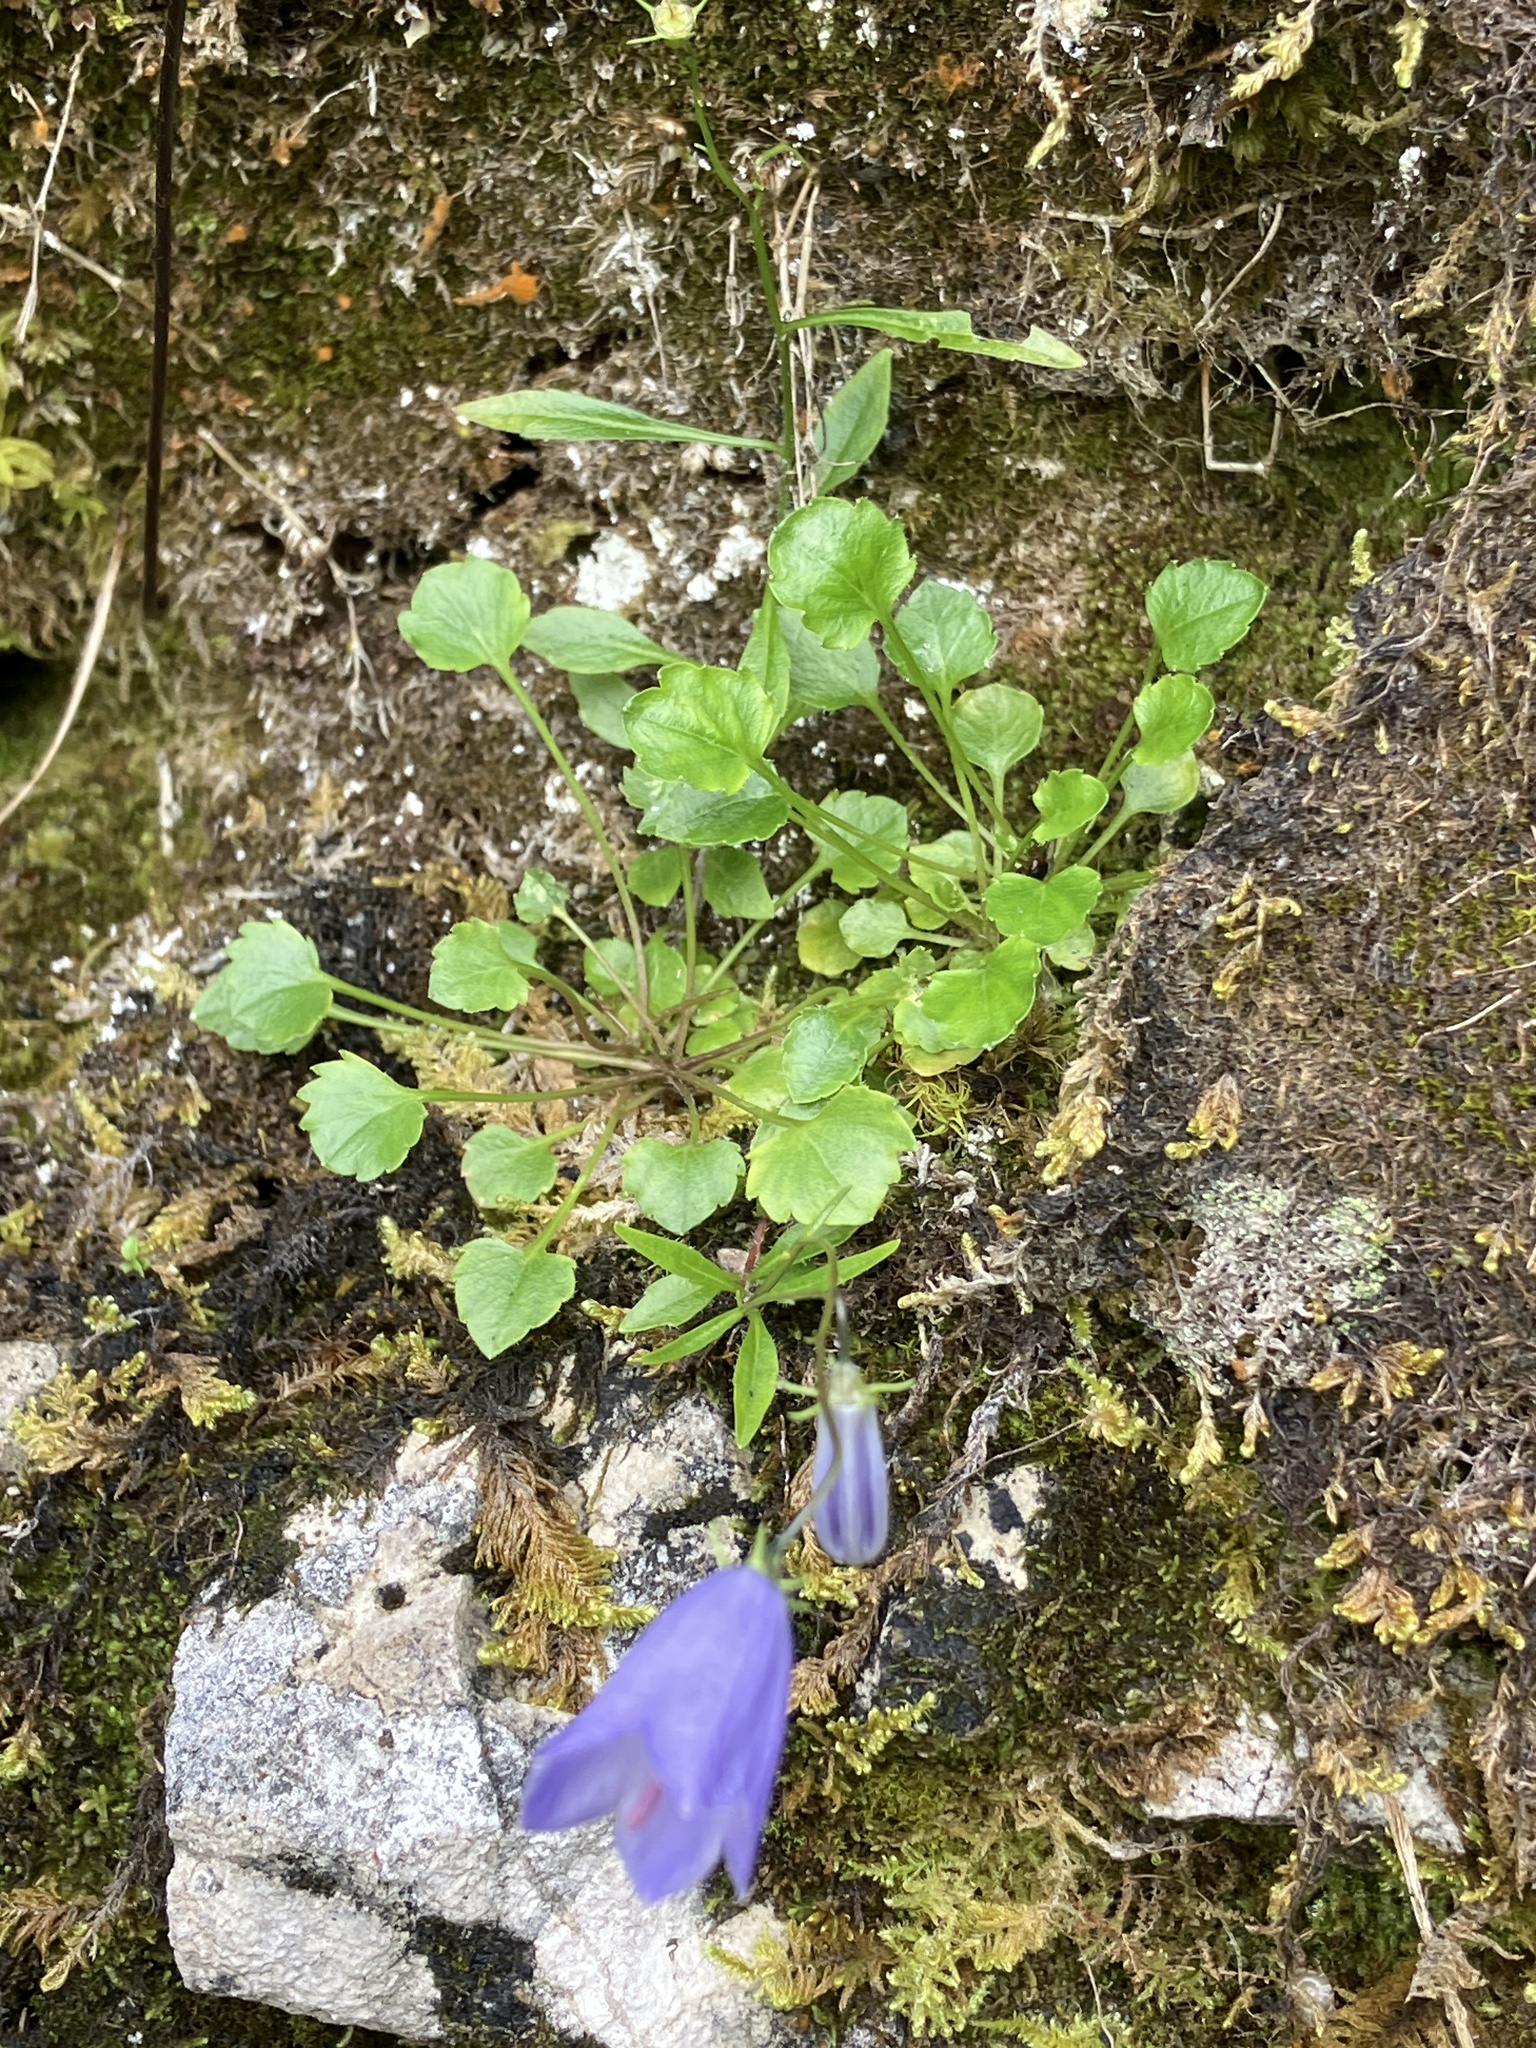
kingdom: Plantae
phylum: Tracheophyta
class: Magnoliopsida
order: Asterales
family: Campanulaceae
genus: Campanula
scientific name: Campanula cochleariifolia
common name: Fairies'-thimbles
